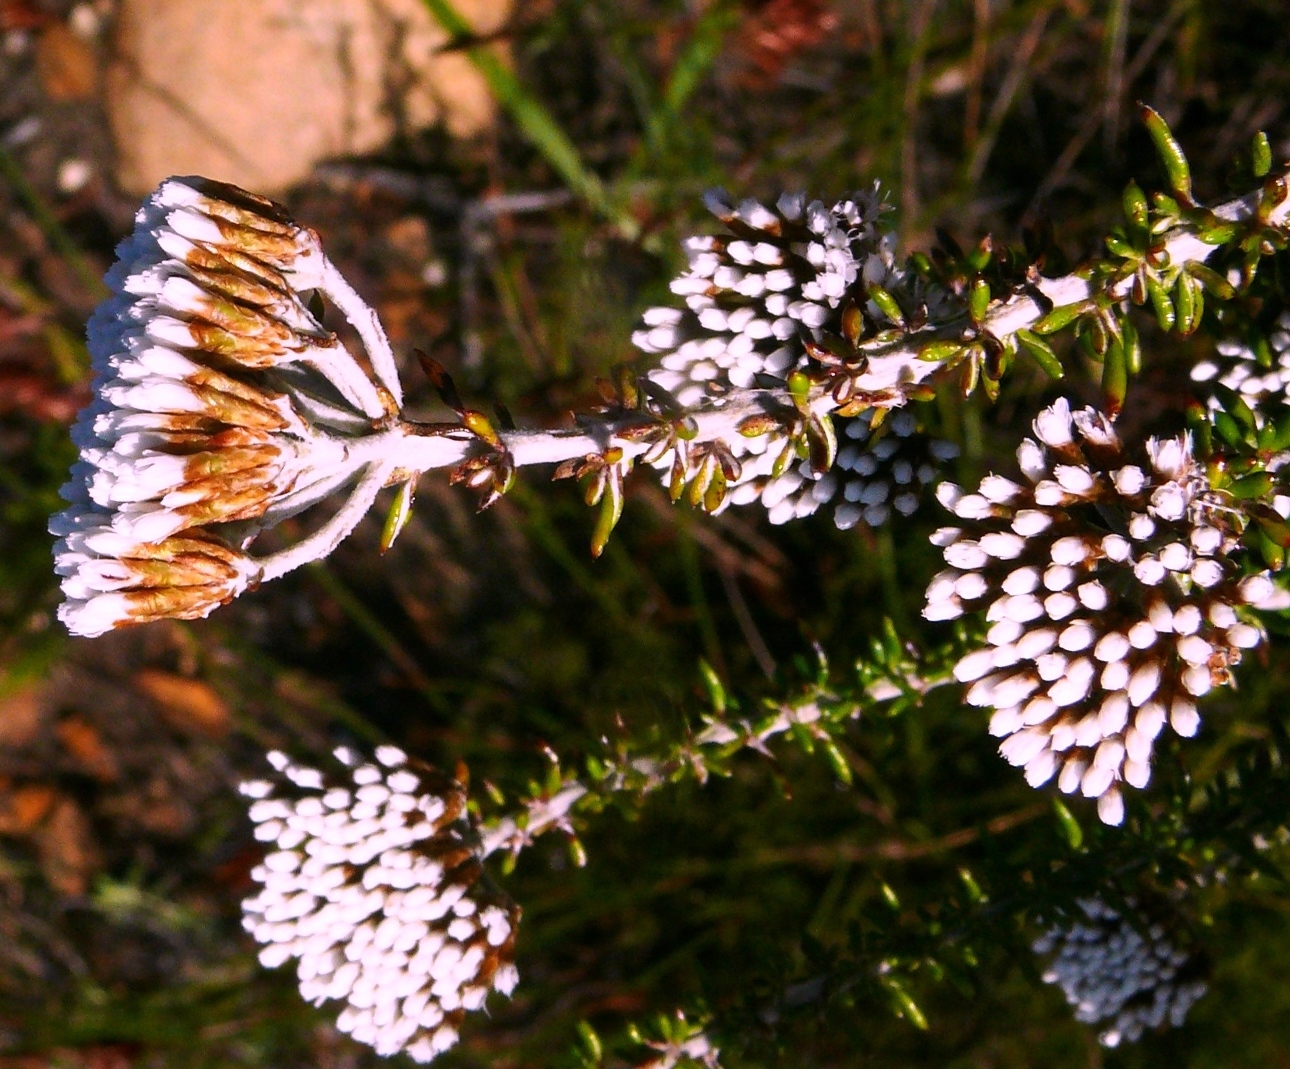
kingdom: Plantae
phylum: Tracheophyta
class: Magnoliopsida
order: Asterales
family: Asteraceae
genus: Metalasia
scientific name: Metalasia densa
